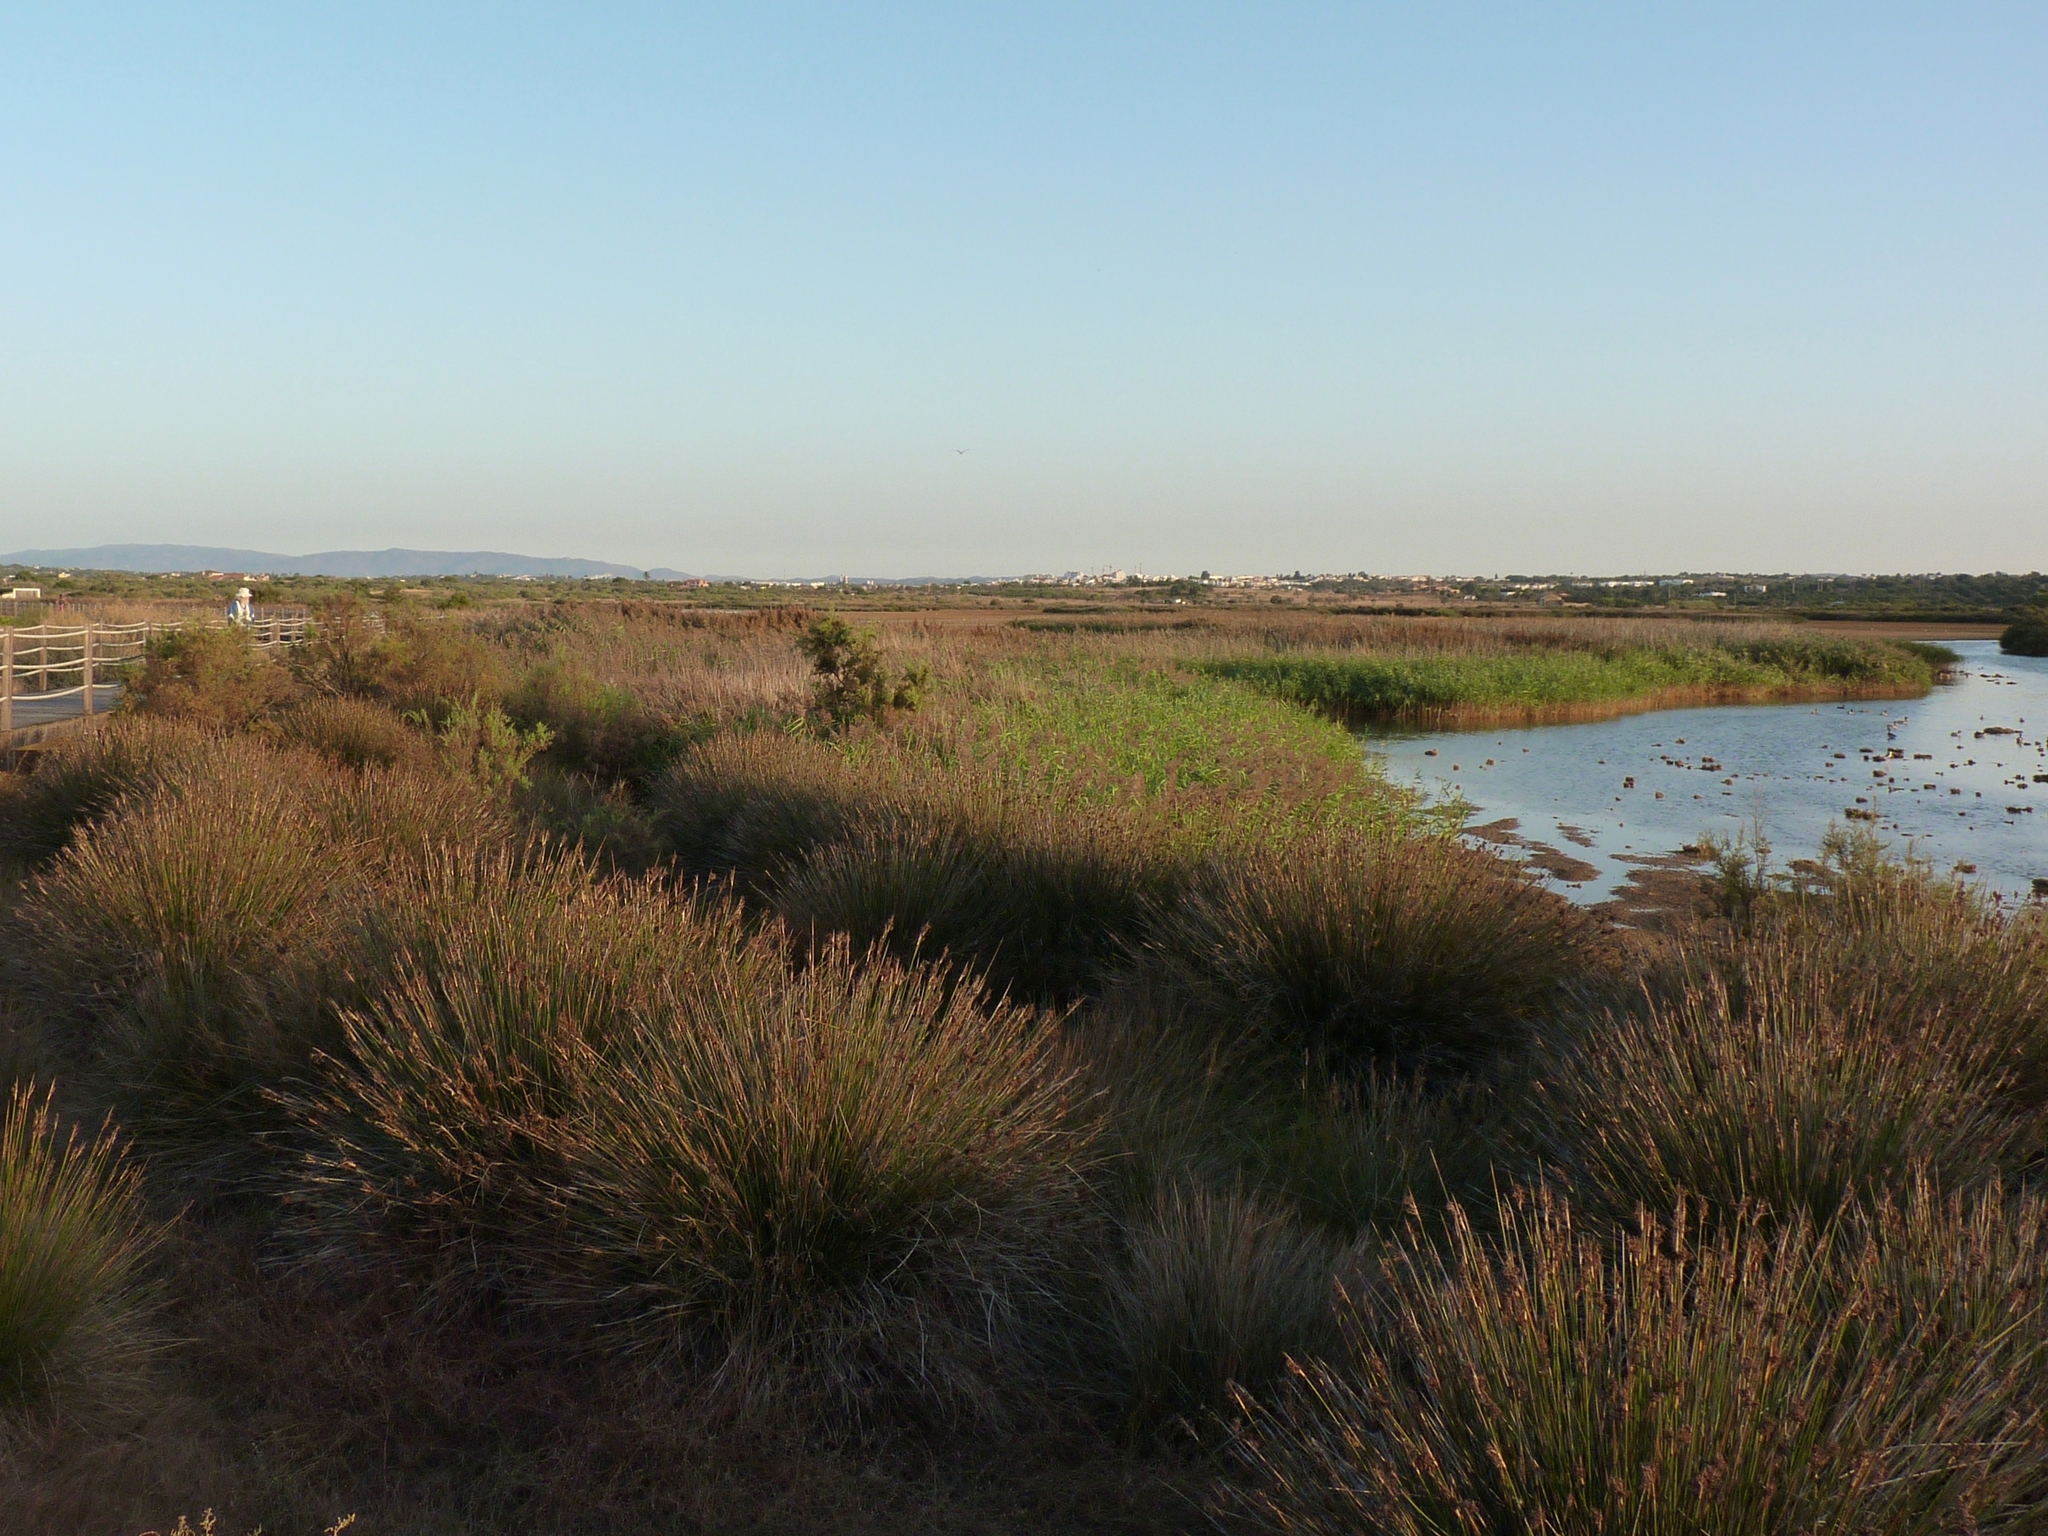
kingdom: Plantae
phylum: Tracheophyta
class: Liliopsida
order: Poales
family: Juncaceae
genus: Juncus
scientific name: Juncus acutus
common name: Sharp rush
